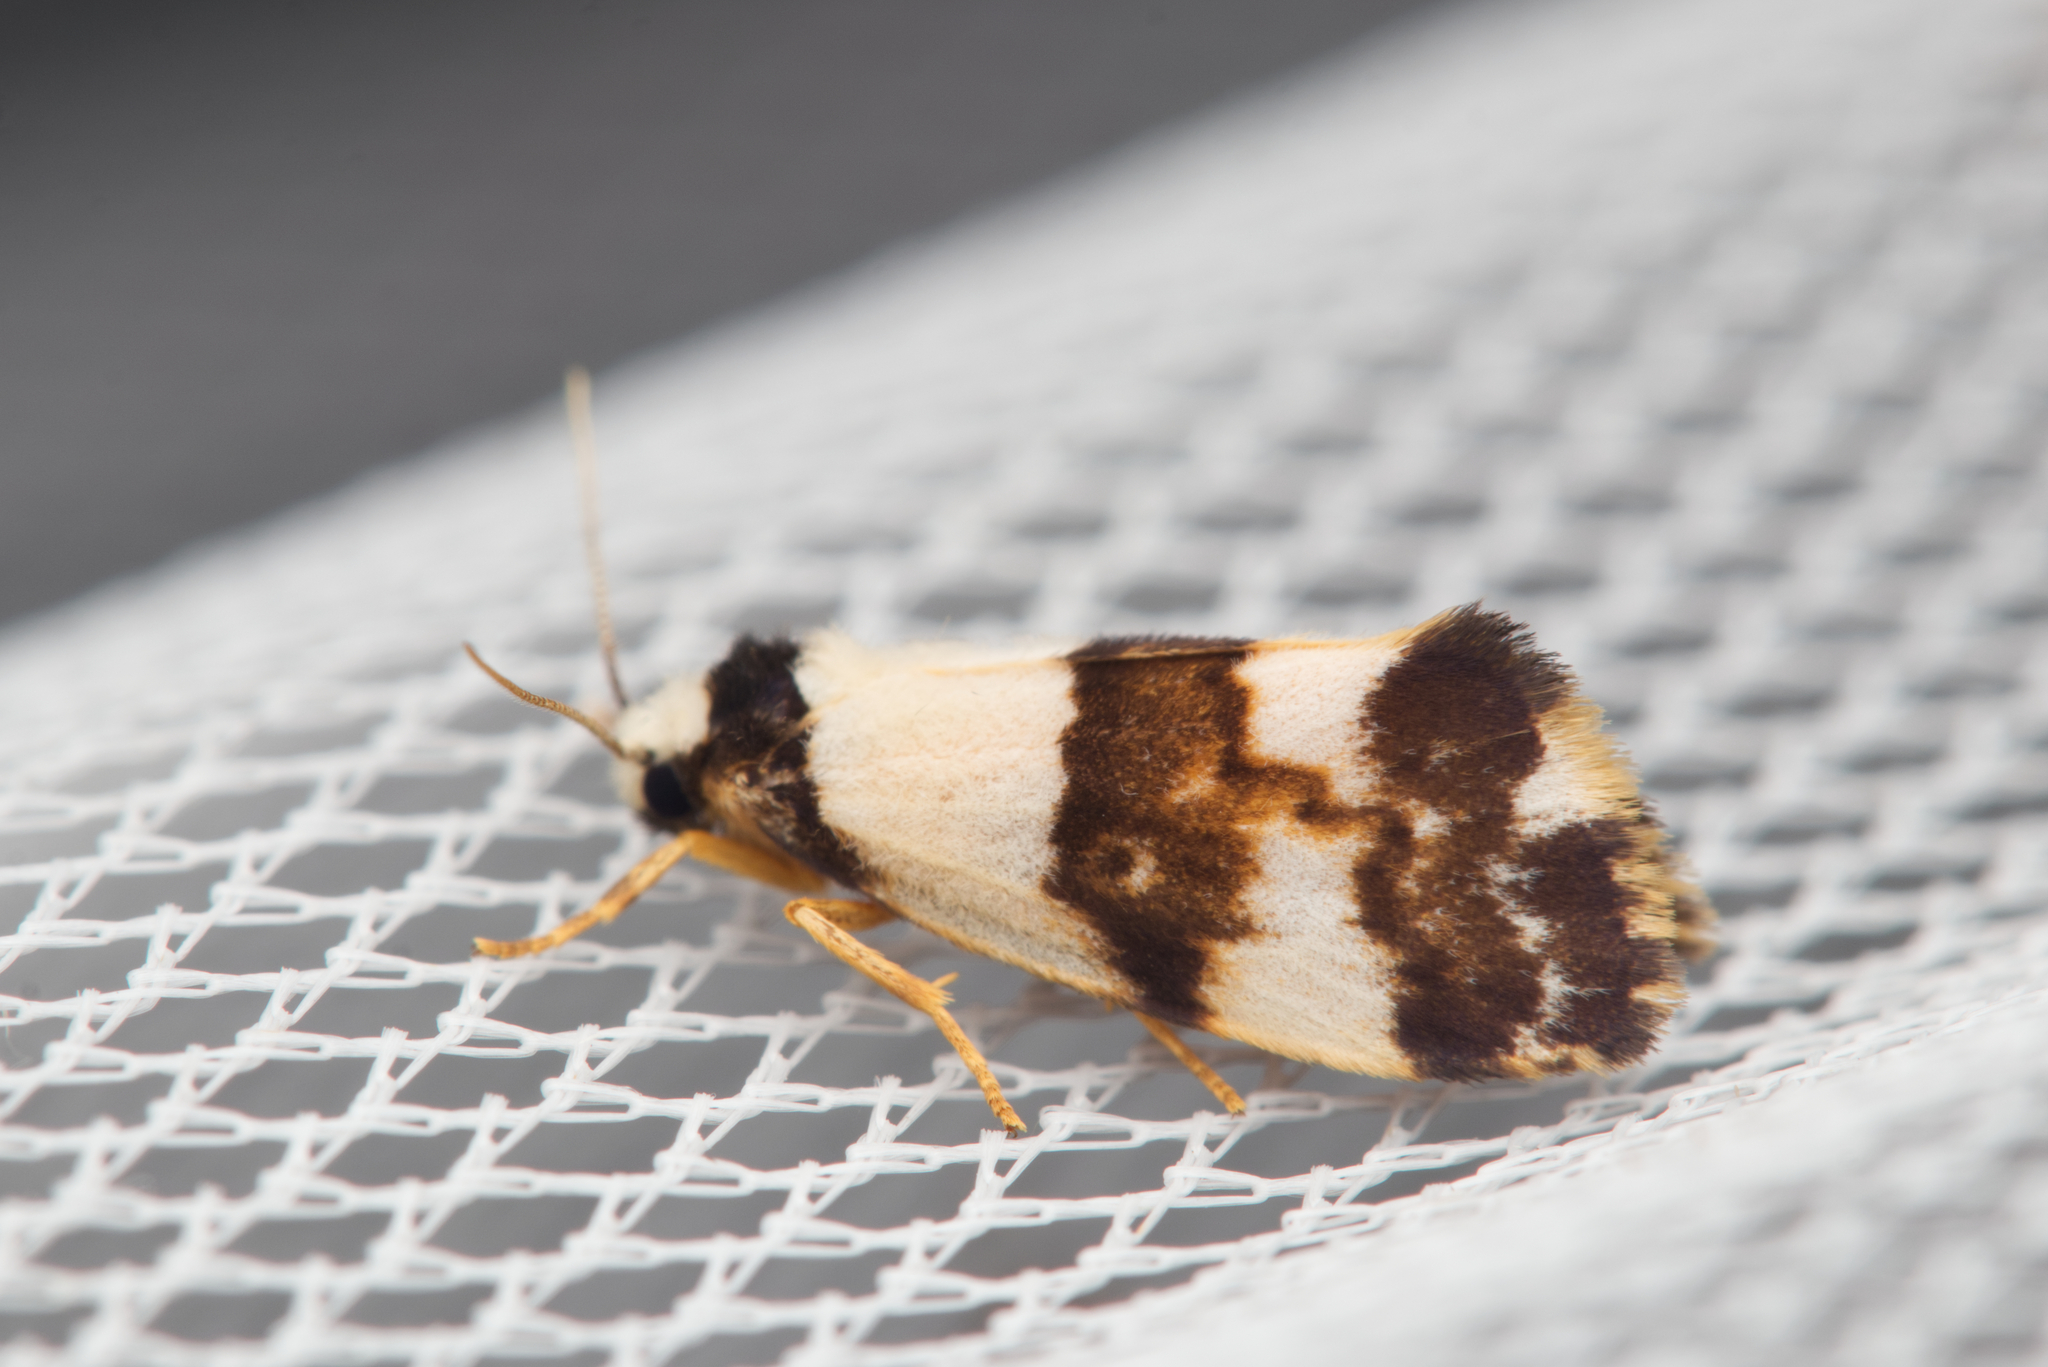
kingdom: Animalia
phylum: Arthropoda
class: Insecta
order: Lepidoptera
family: Erebidae
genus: Philenora
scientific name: Philenora aspectalella
